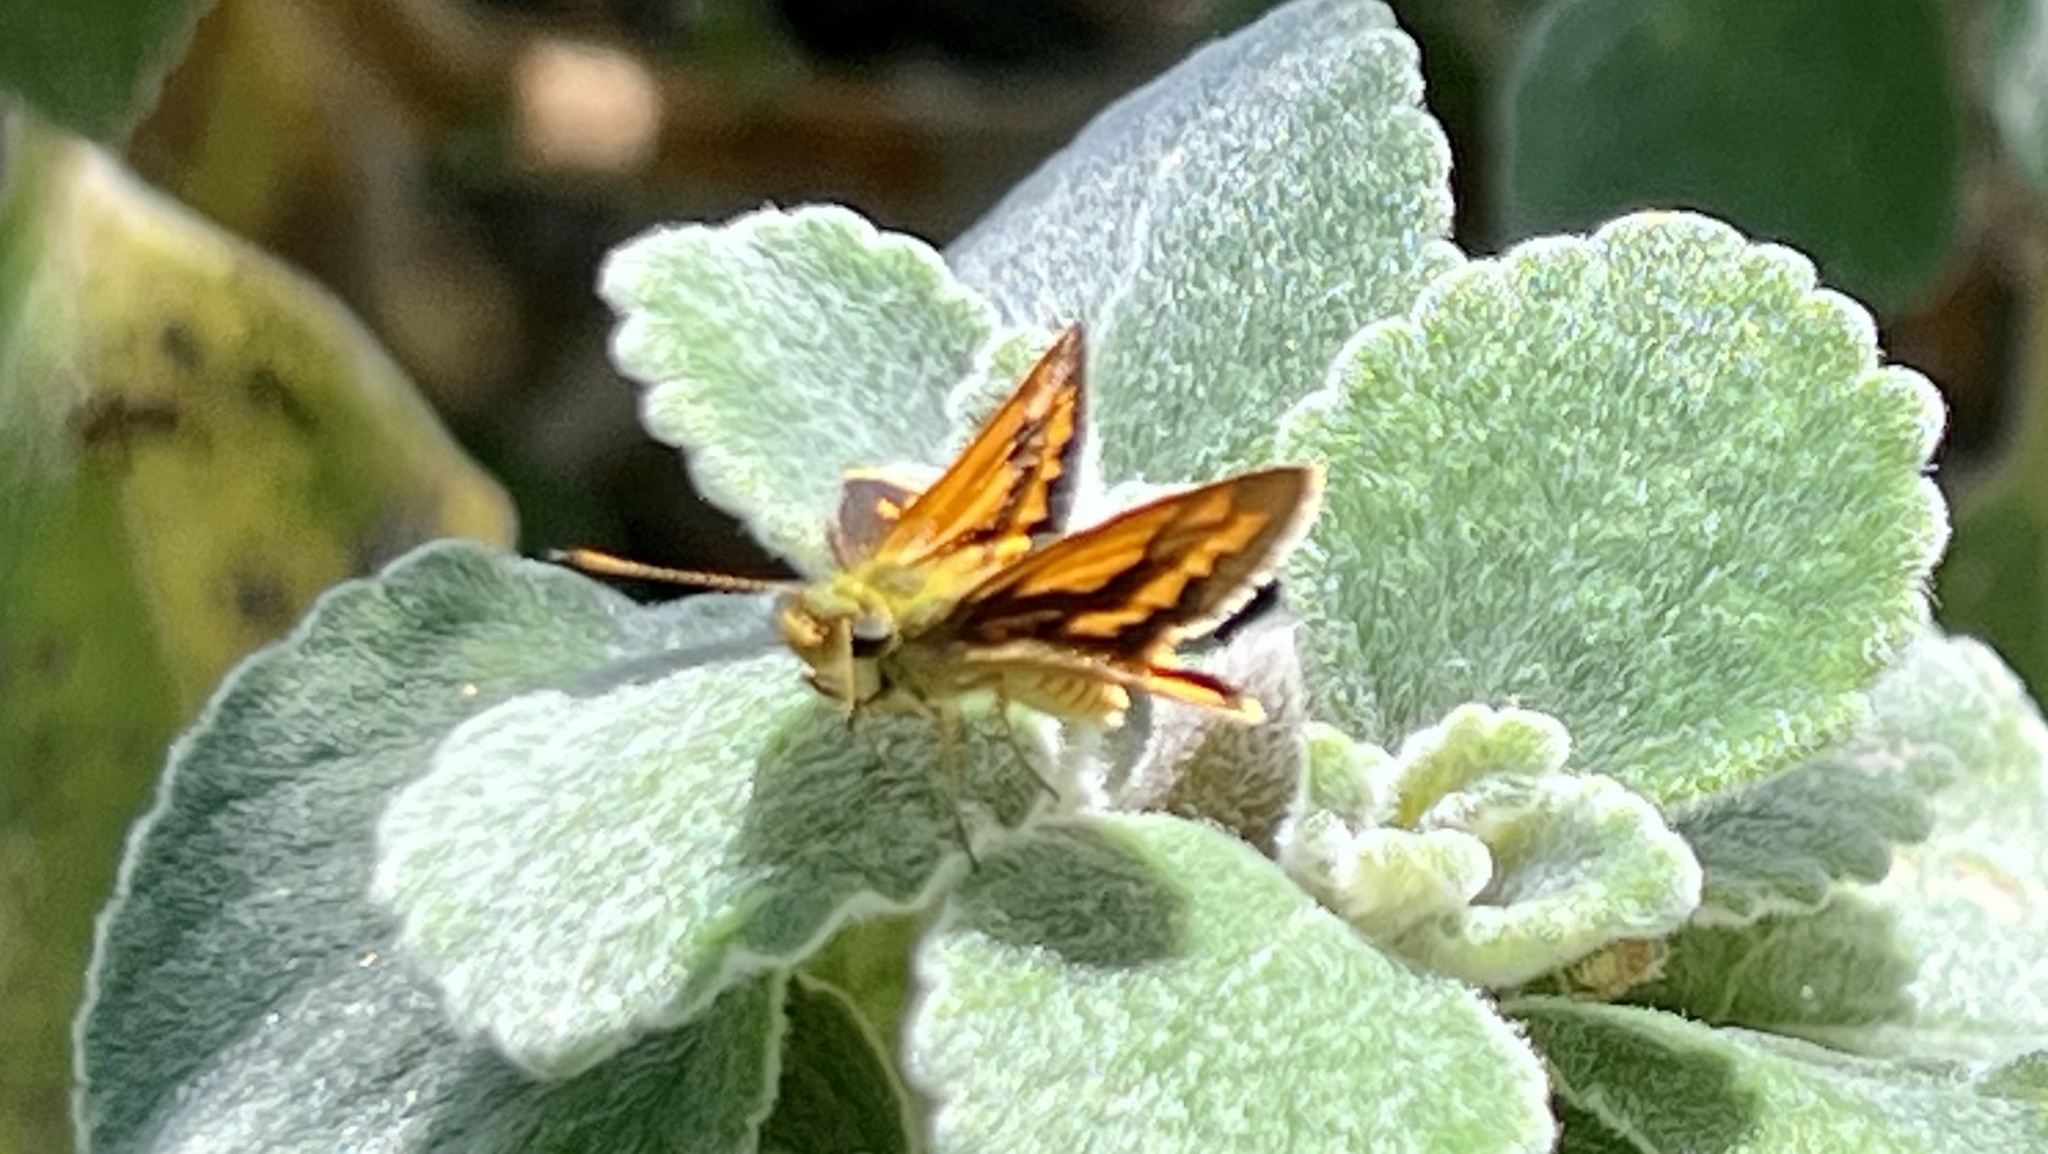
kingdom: Animalia
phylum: Arthropoda
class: Insecta
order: Lepidoptera
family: Hesperiidae
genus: Suniana
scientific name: Suniana sunias
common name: Wide-brand grass-dart
